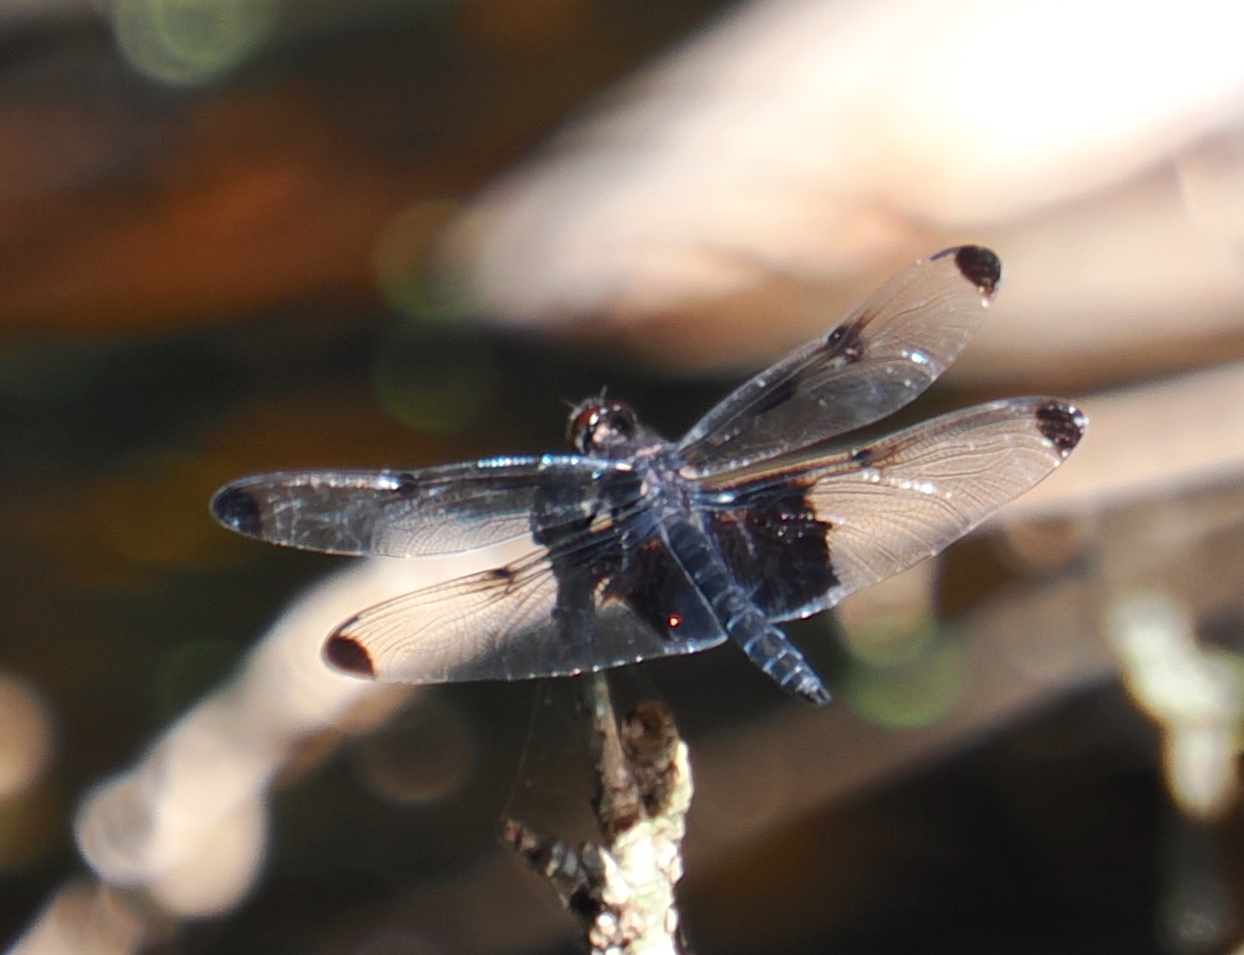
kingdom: Animalia
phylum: Arthropoda
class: Insecta
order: Odonata
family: Libellulidae
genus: Atratothemis
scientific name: Atratothemis reelsi
